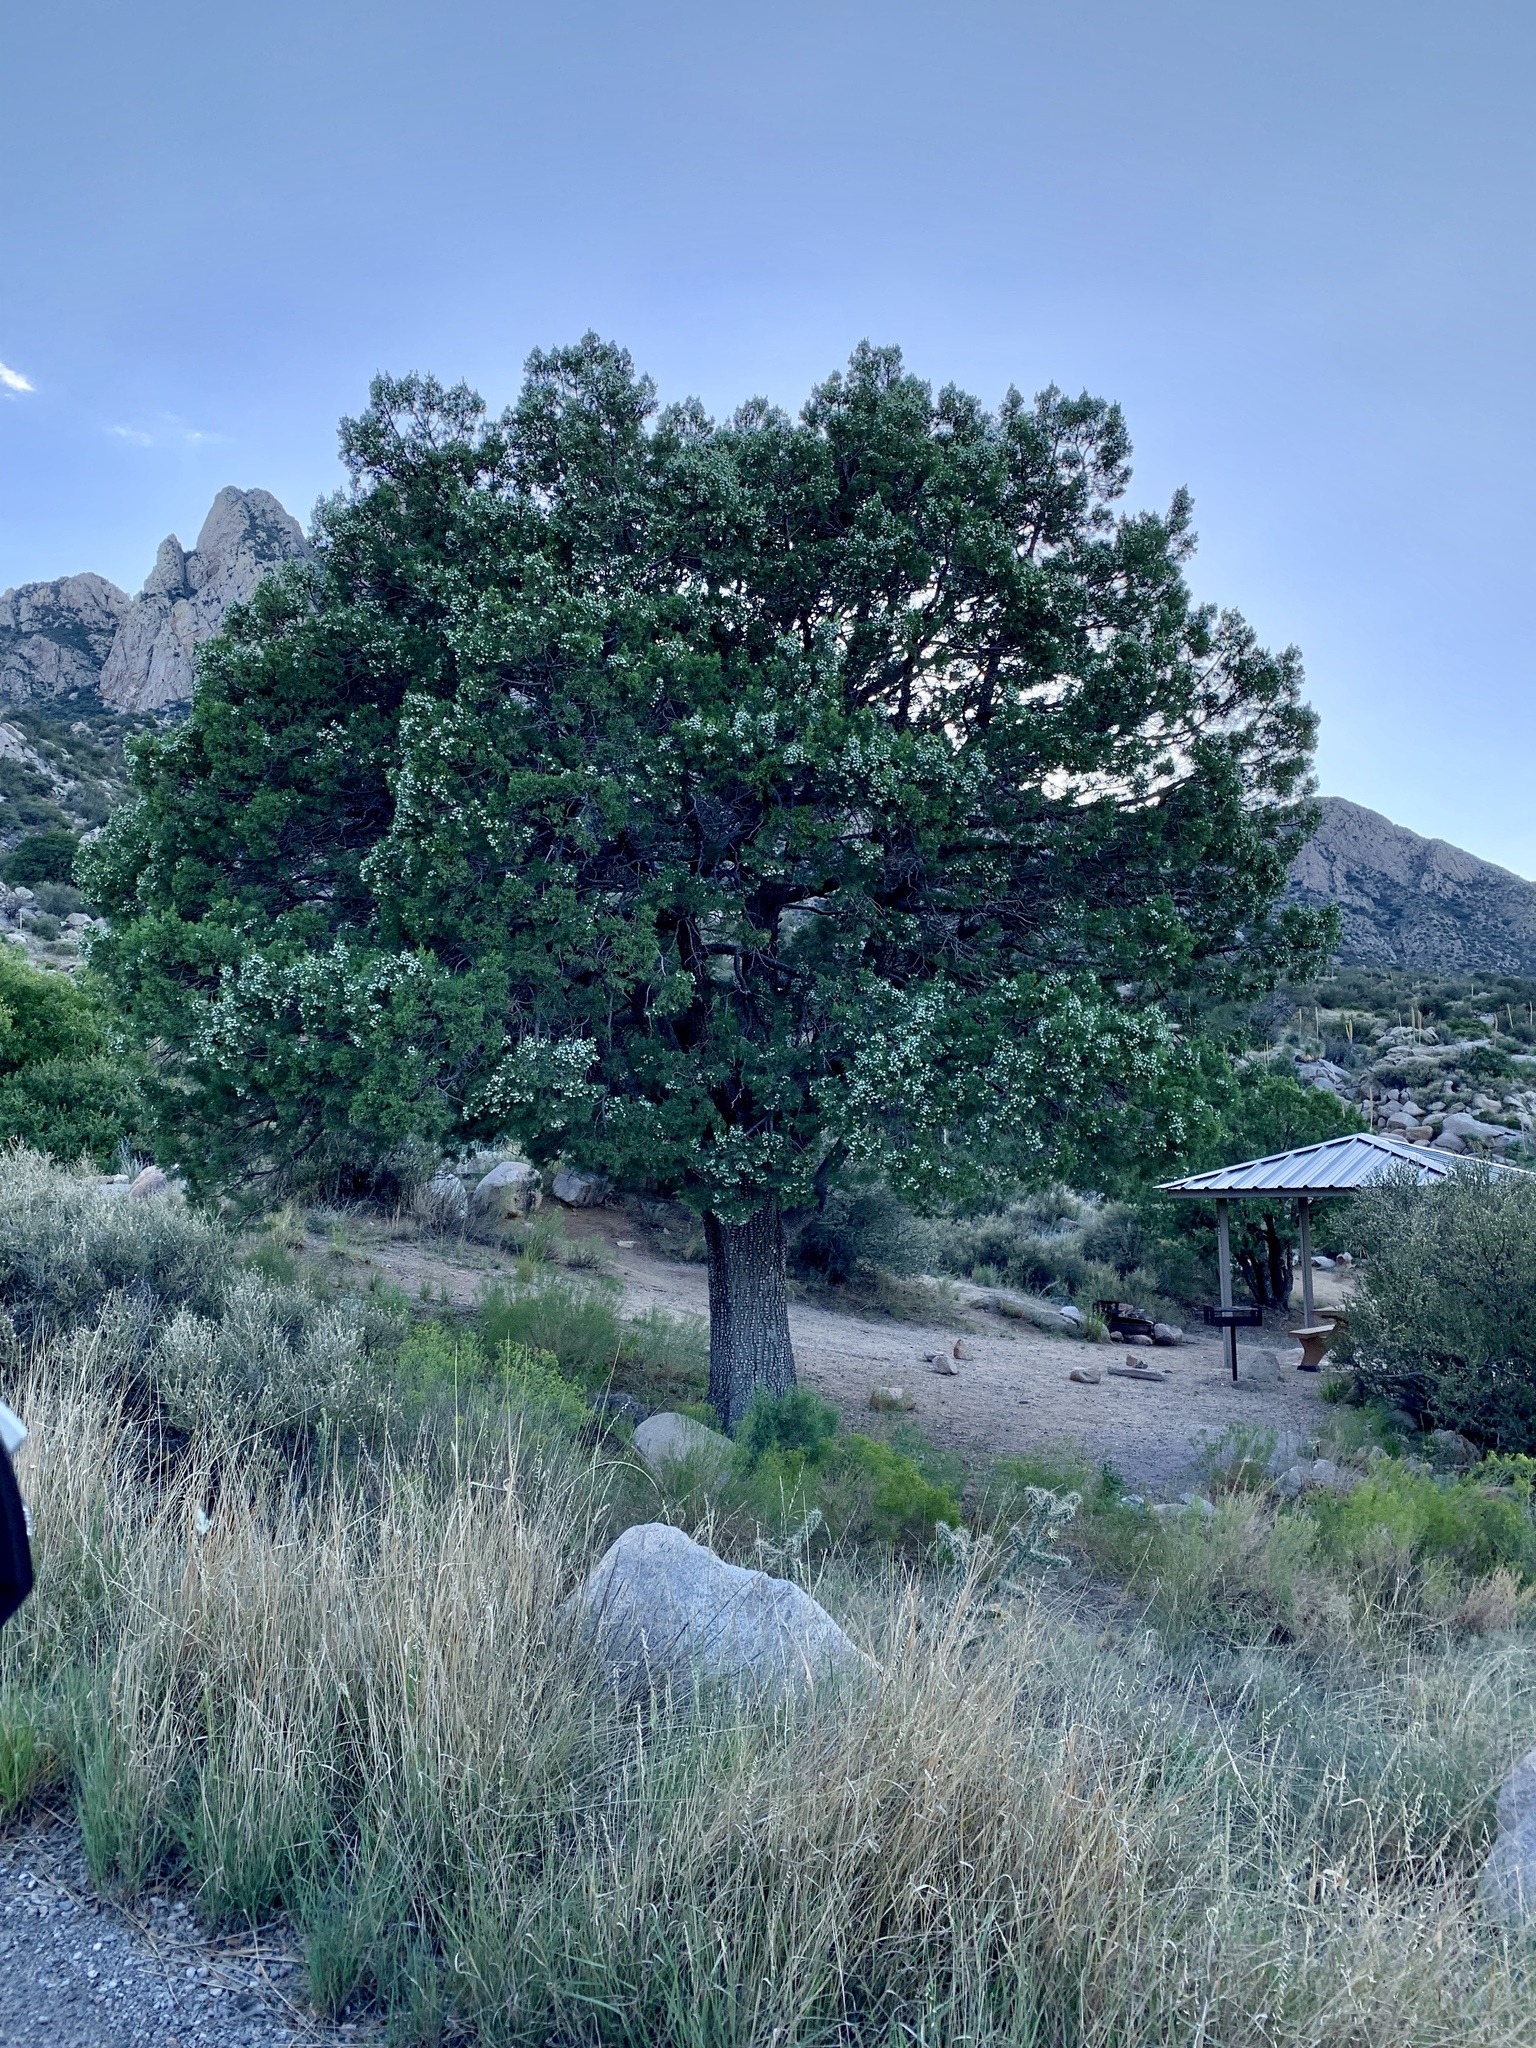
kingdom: Plantae
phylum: Tracheophyta
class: Pinopsida
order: Pinales
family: Cupressaceae
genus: Juniperus
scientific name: Juniperus deppeana
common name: Alligator juniper
